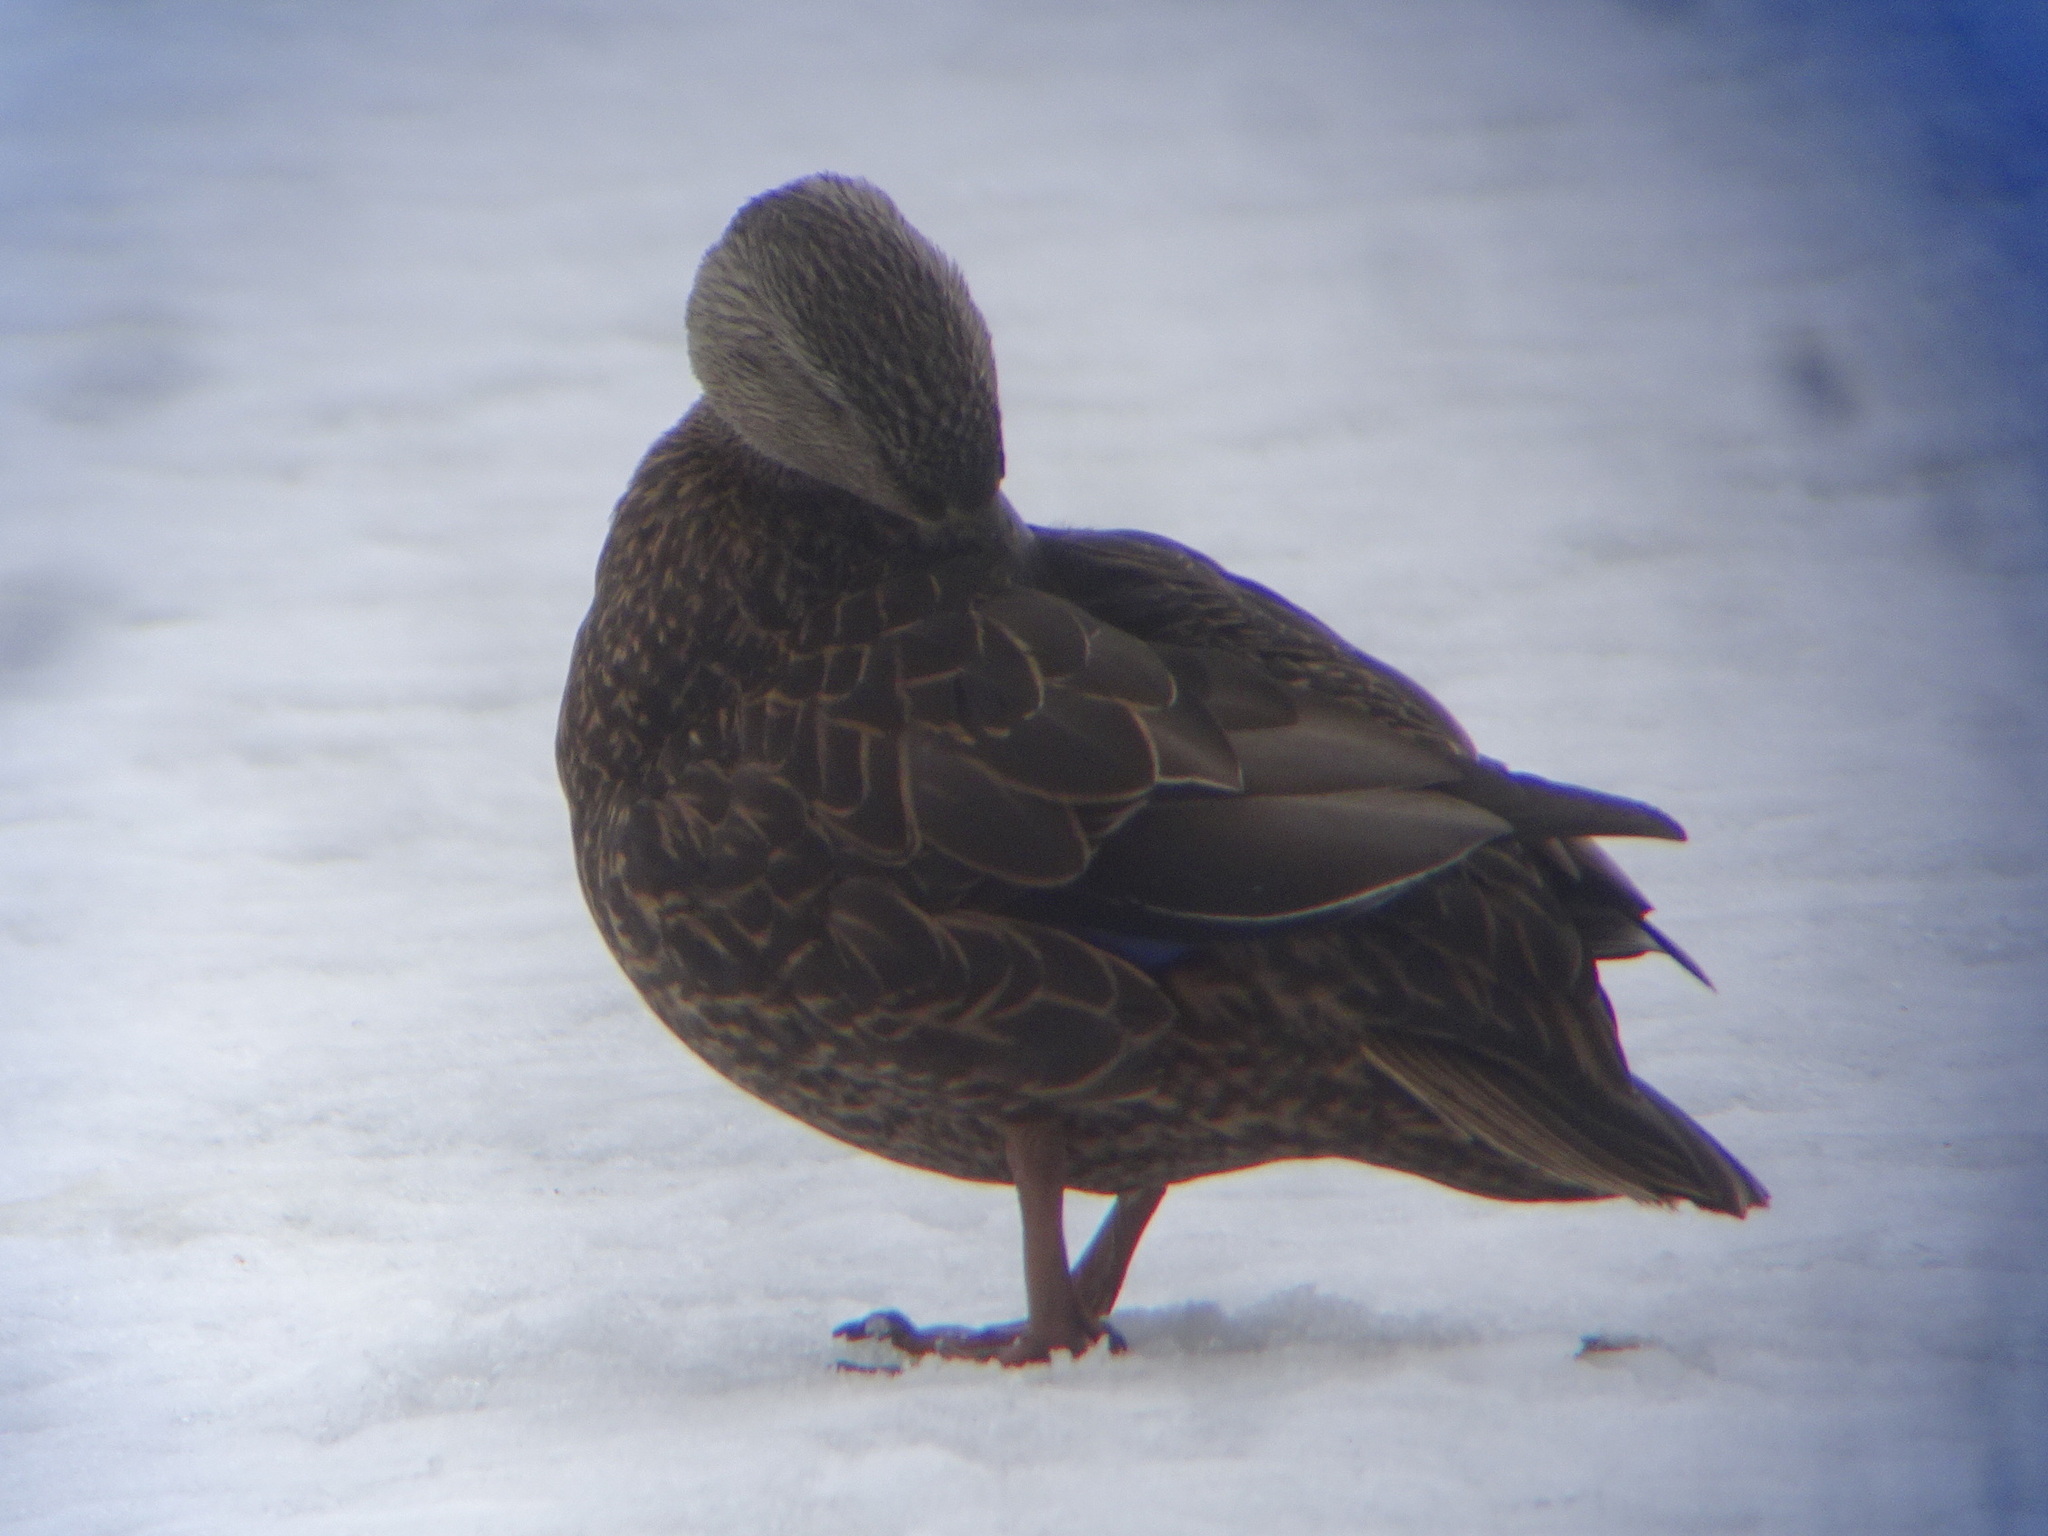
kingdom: Animalia
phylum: Chordata
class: Aves
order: Anseriformes
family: Anatidae
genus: Anas
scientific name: Anas rubripes
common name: American black duck
